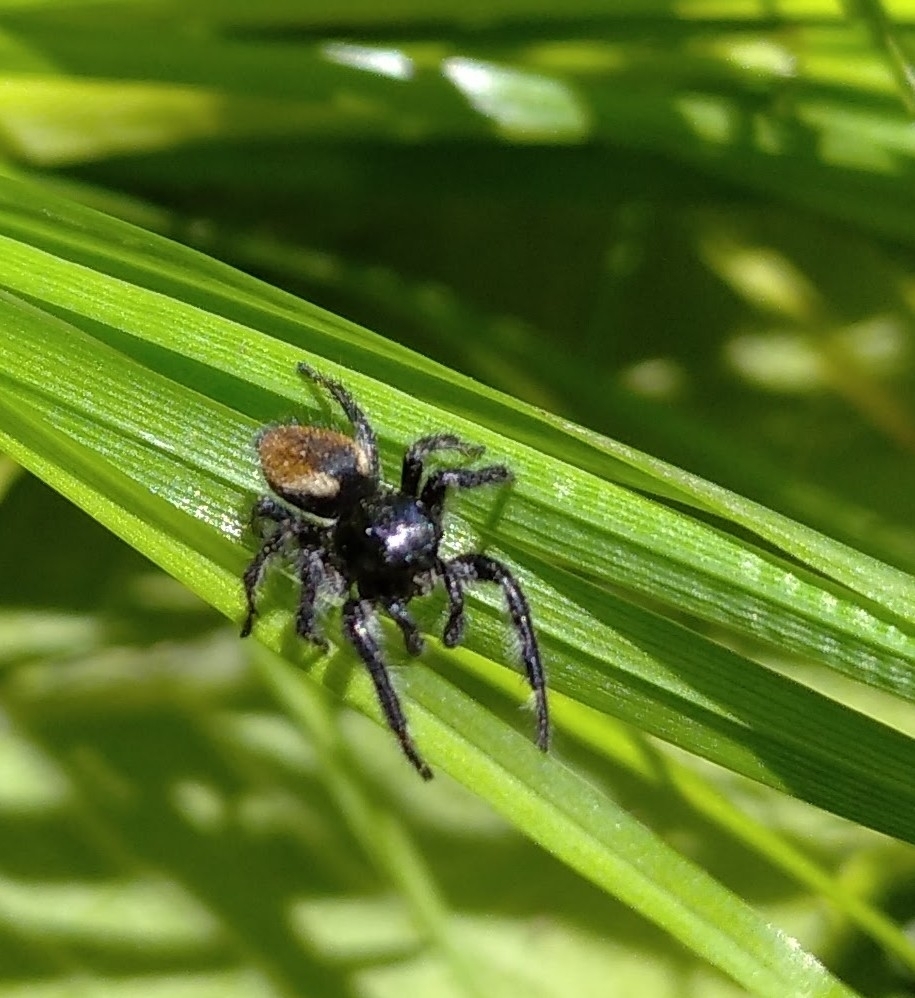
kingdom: Animalia
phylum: Arthropoda
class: Arachnida
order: Araneae
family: Salticidae
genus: Carrhotus
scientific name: Carrhotus xanthogramma
